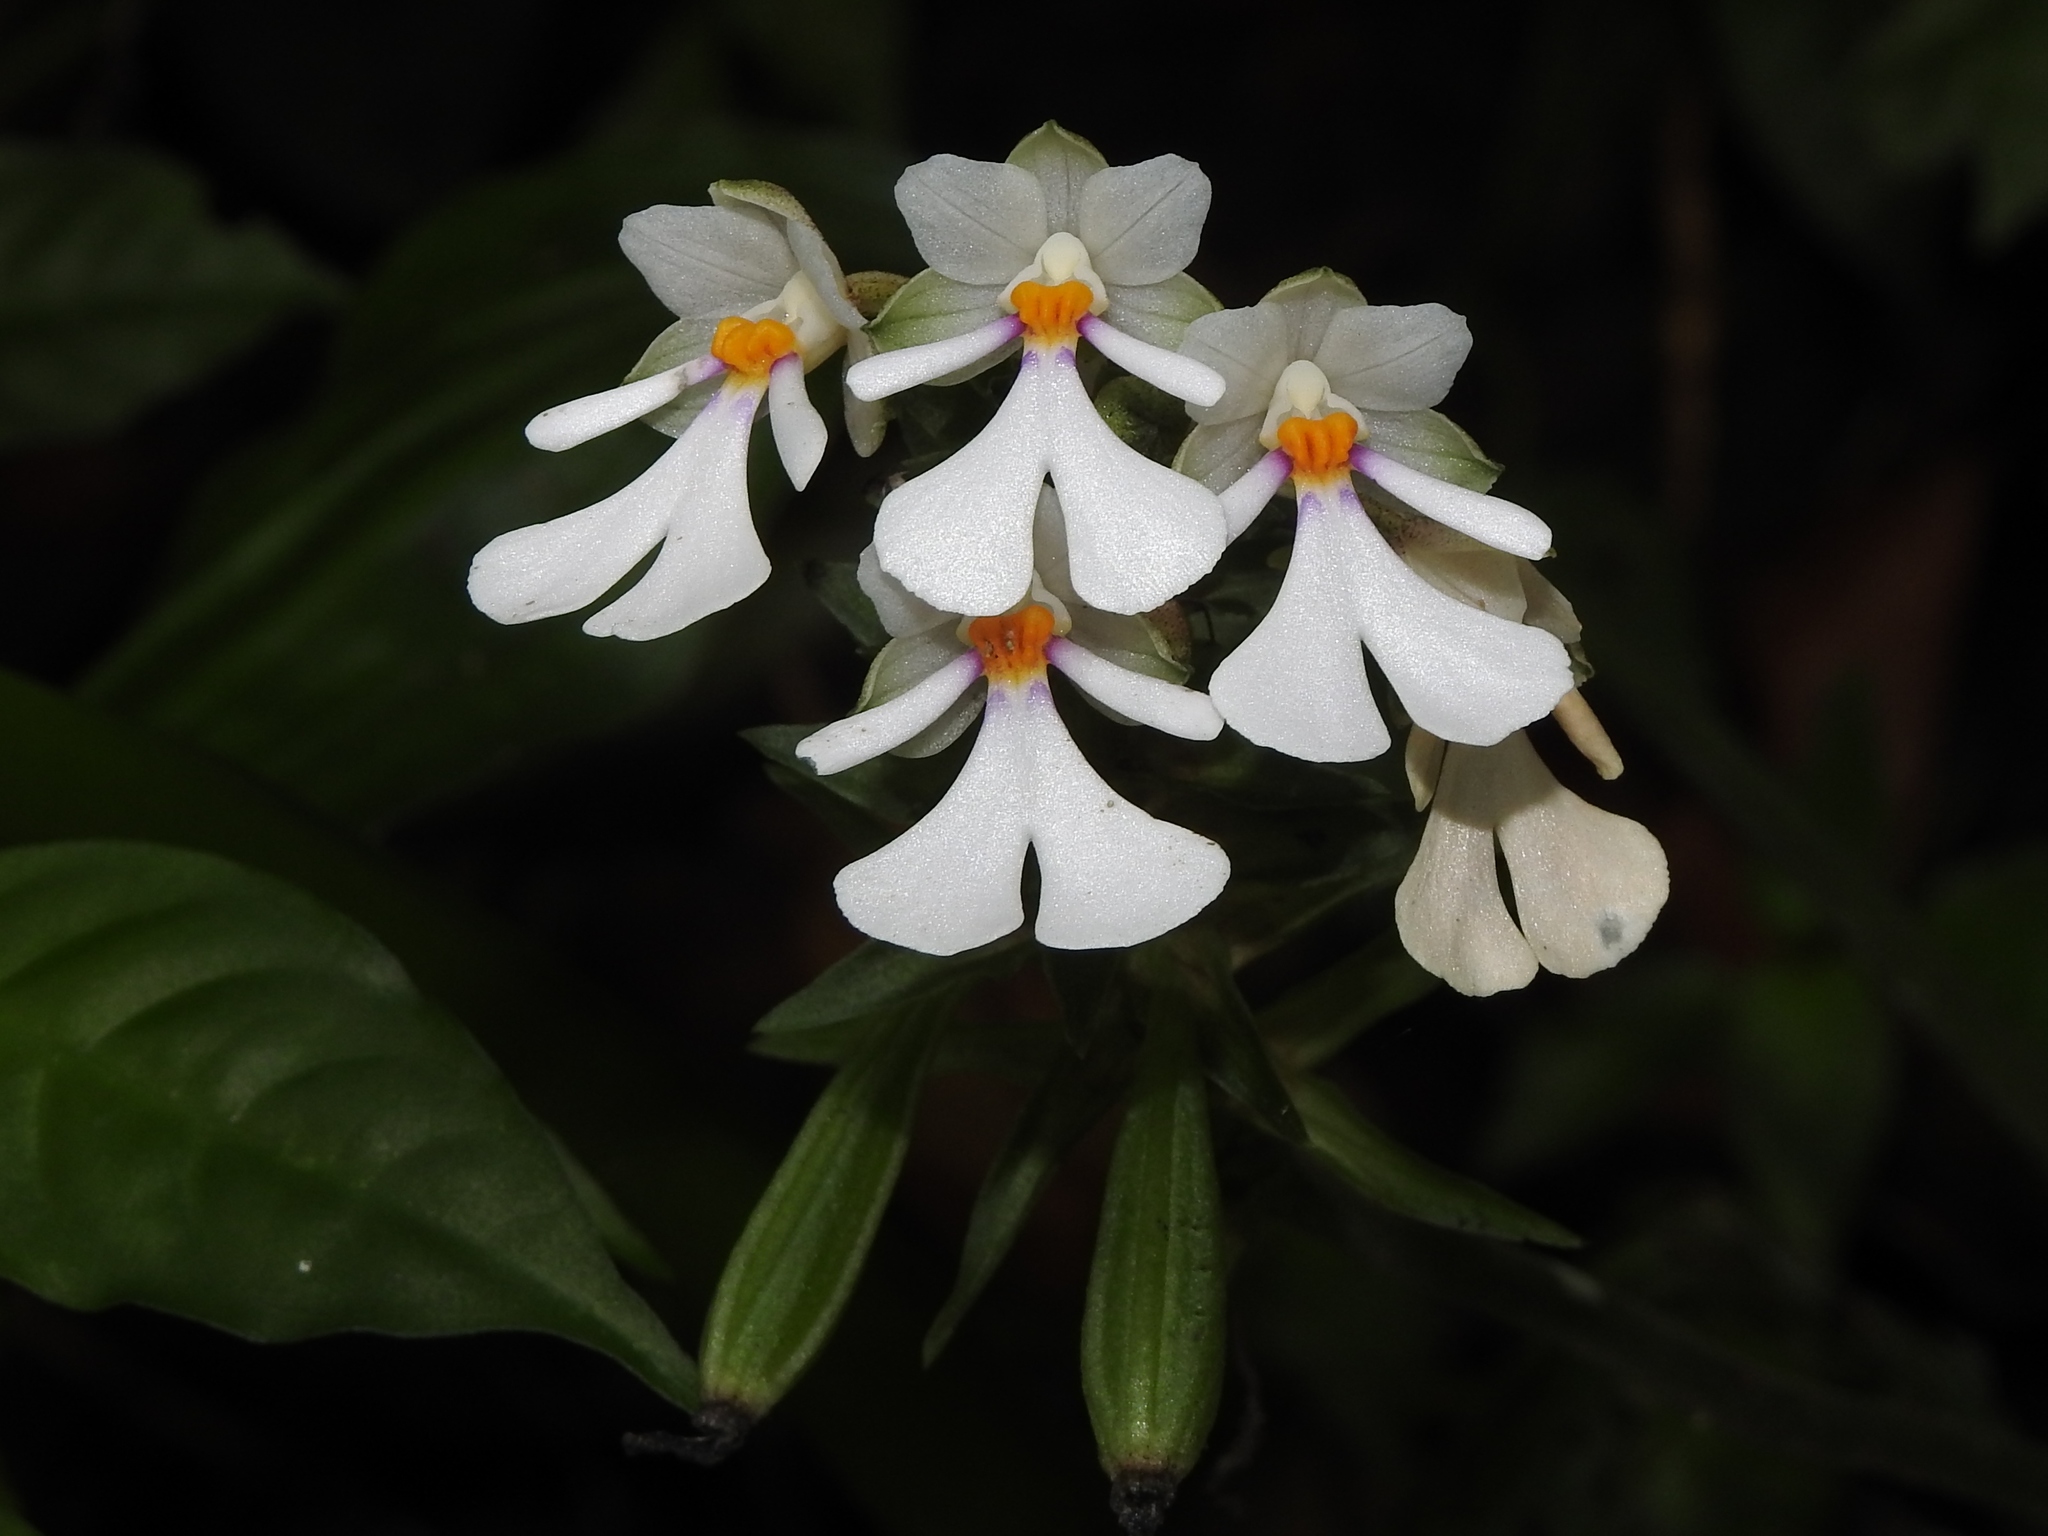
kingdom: Plantae
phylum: Tracheophyta
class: Liliopsida
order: Asparagales
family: Orchidaceae
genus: Calanthe
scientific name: Calanthe alismifolia
